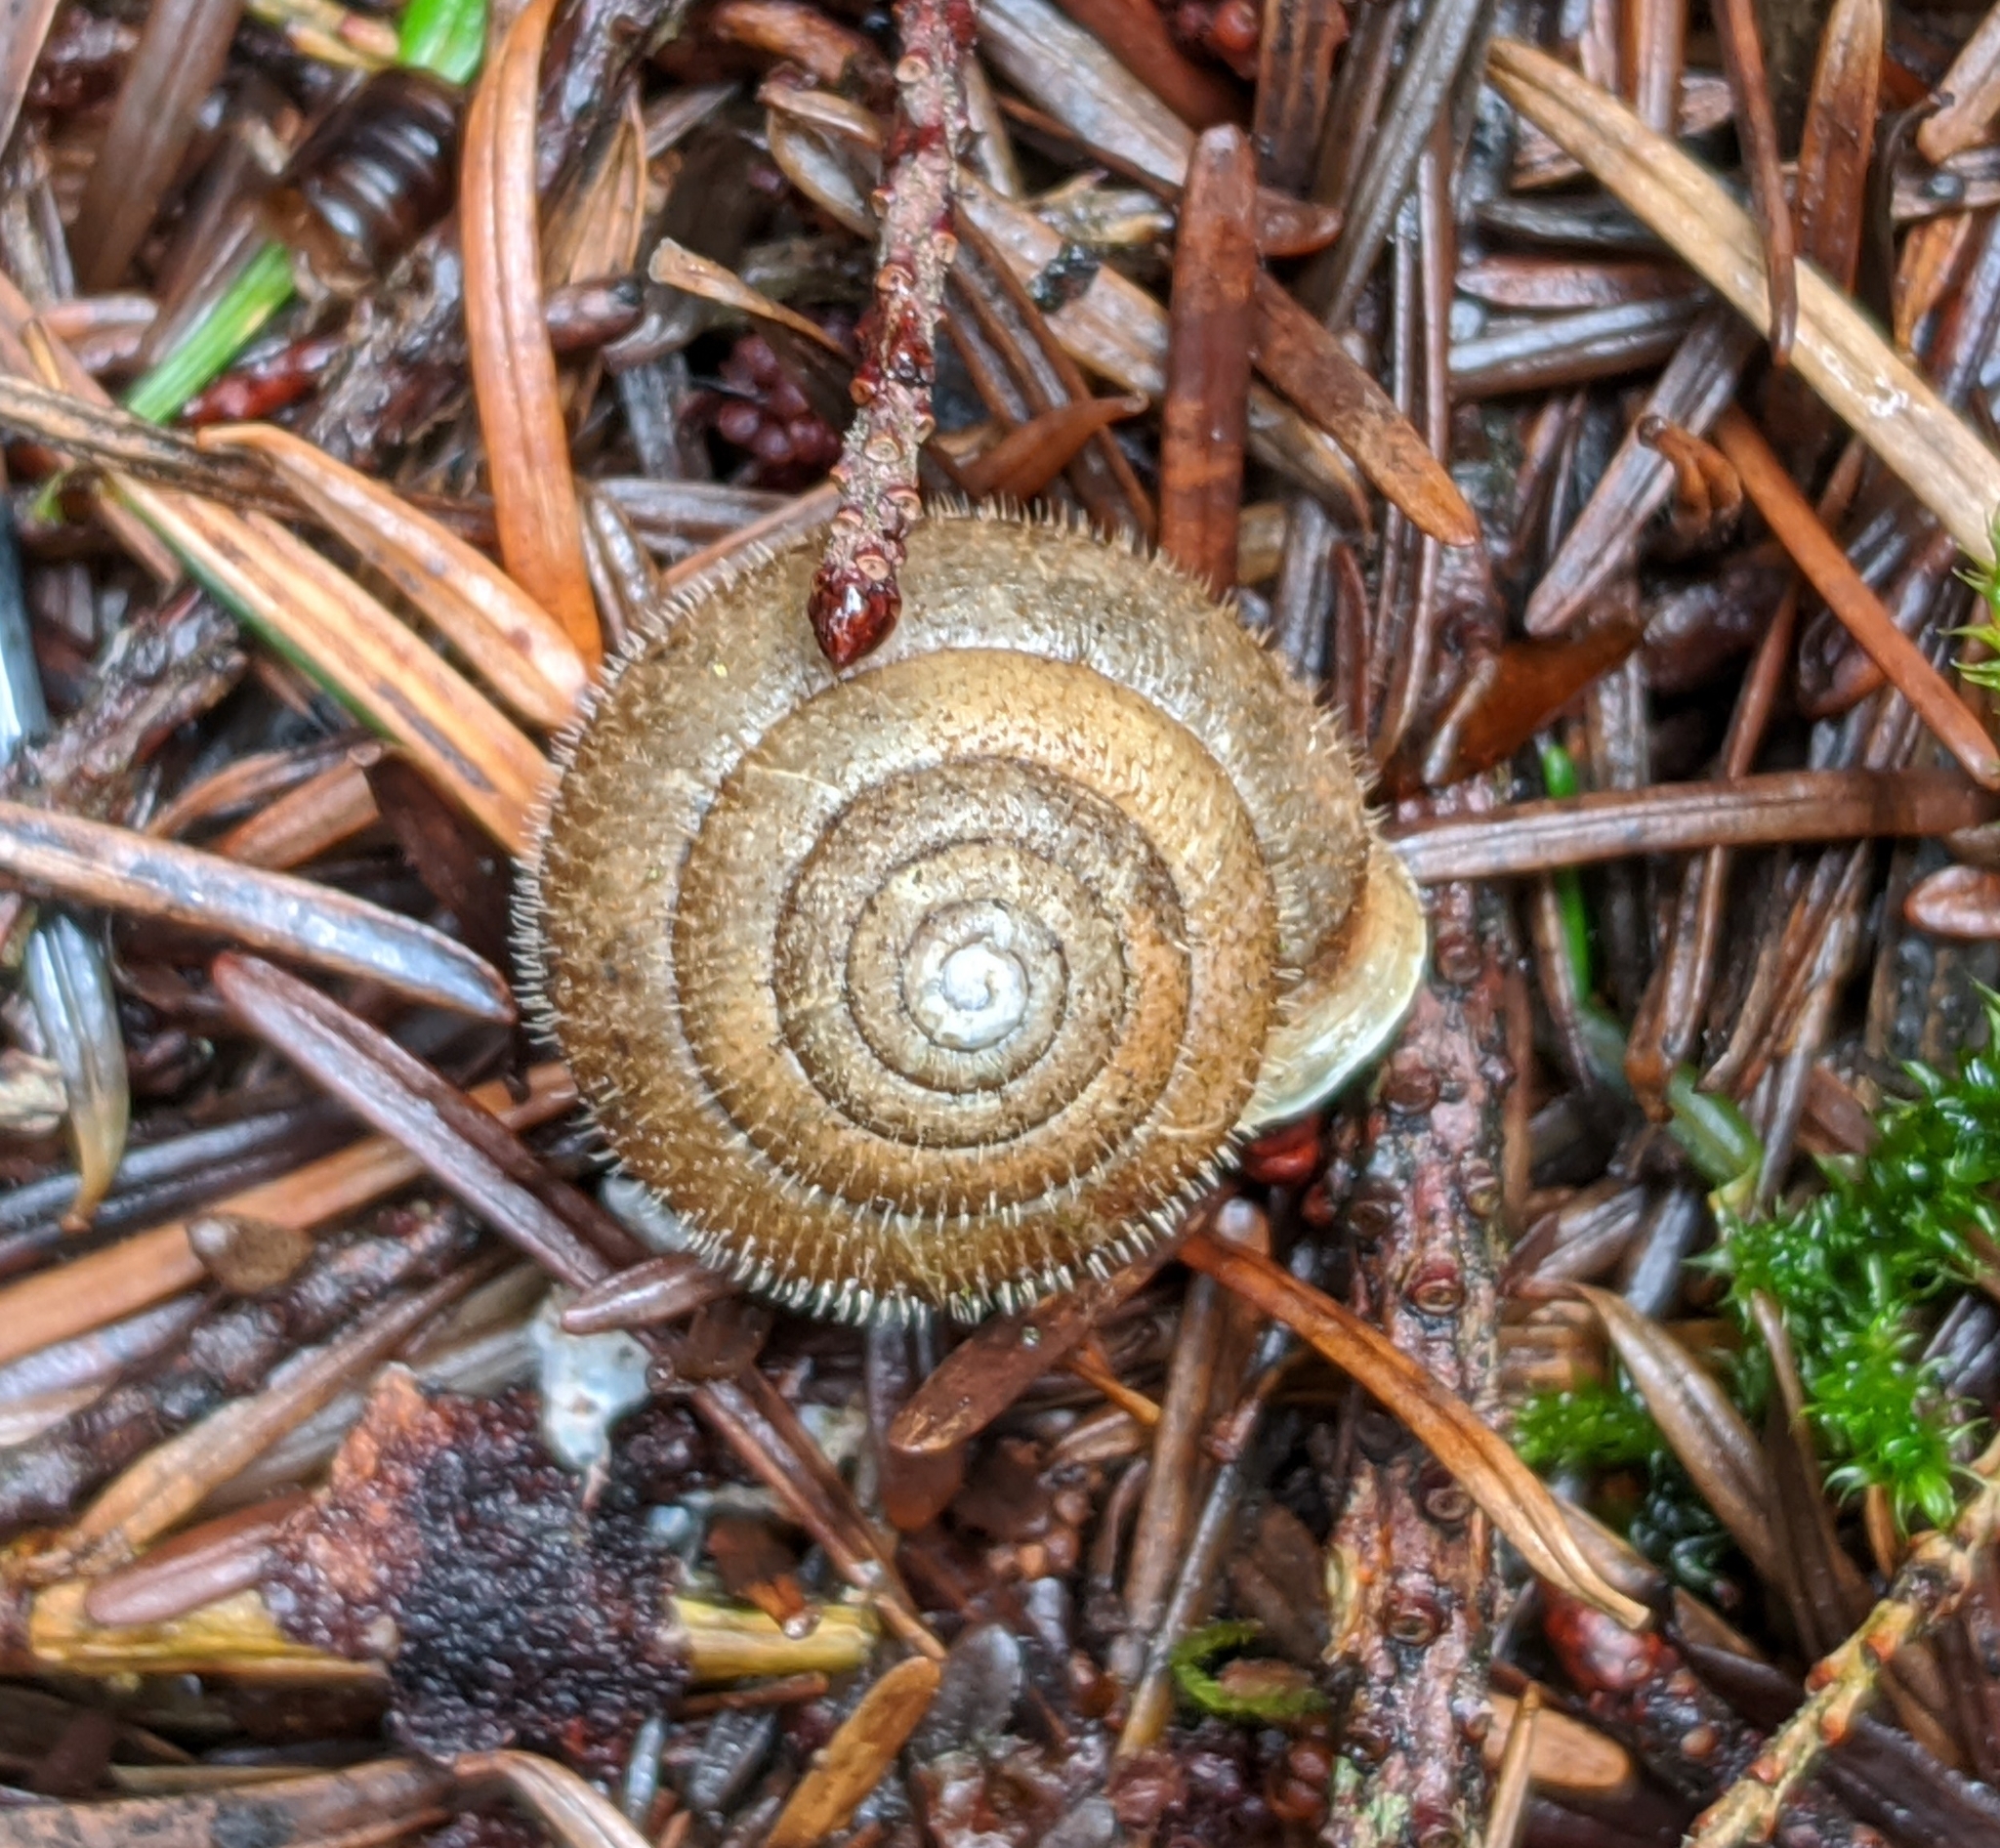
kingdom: Animalia
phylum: Mollusca
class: Gastropoda
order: Stylommatophora
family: Polygyridae
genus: Vespericola
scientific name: Vespericola columbianus
